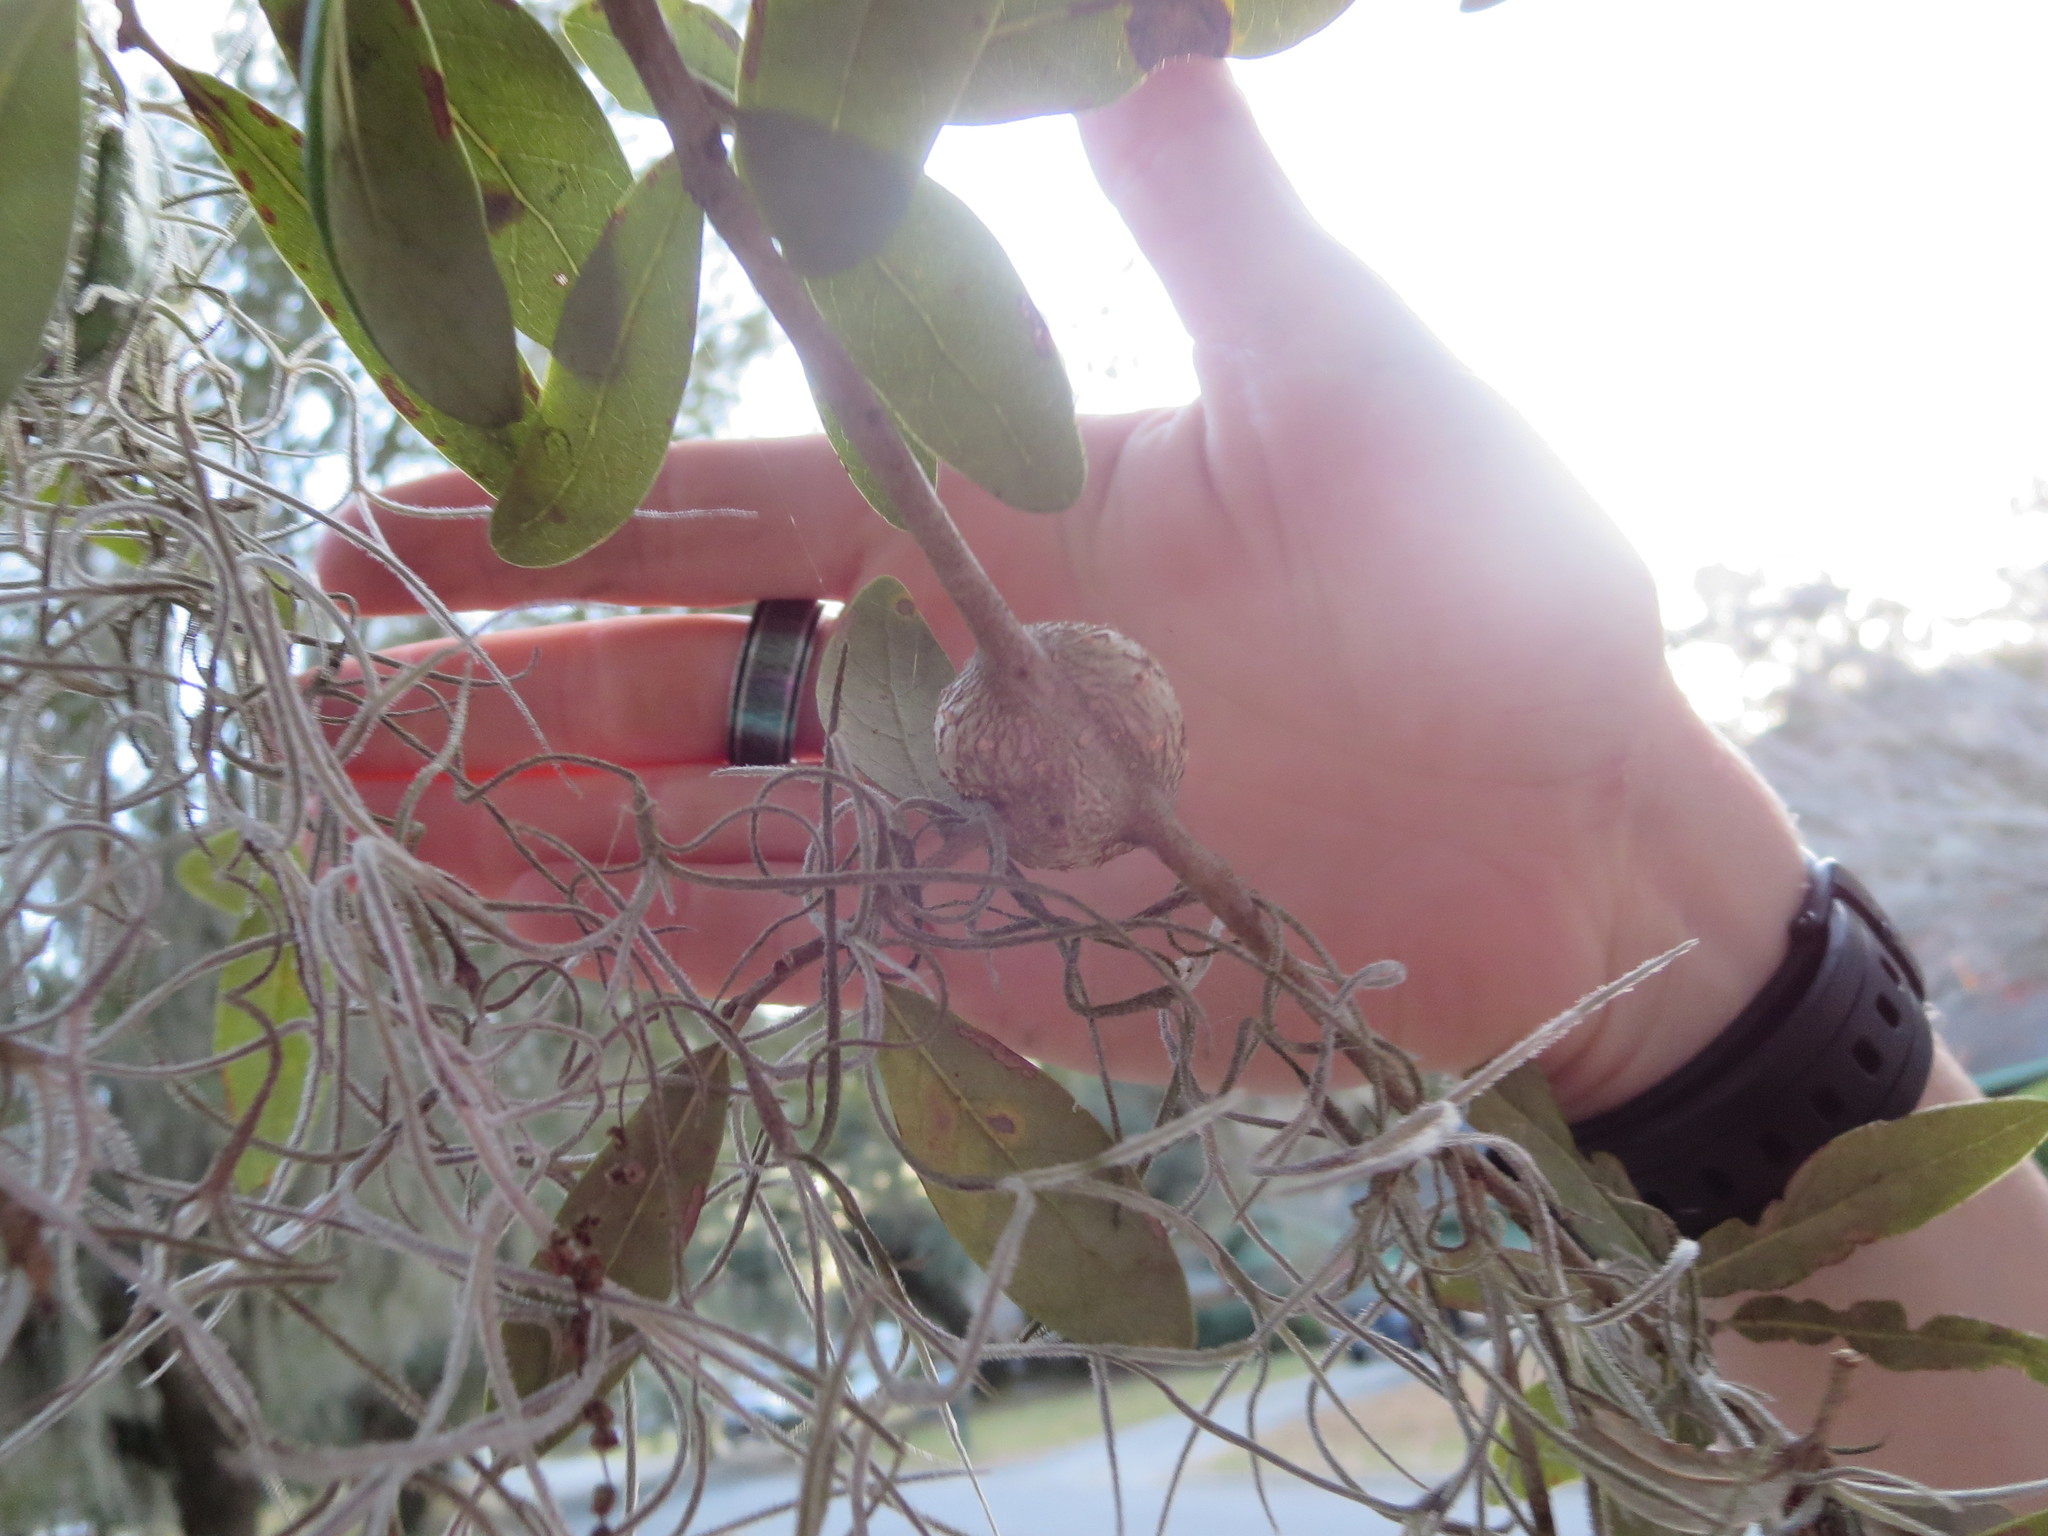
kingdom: Animalia
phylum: Arthropoda
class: Insecta
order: Hymenoptera
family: Cynipidae
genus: Callirhytis
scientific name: Callirhytis
